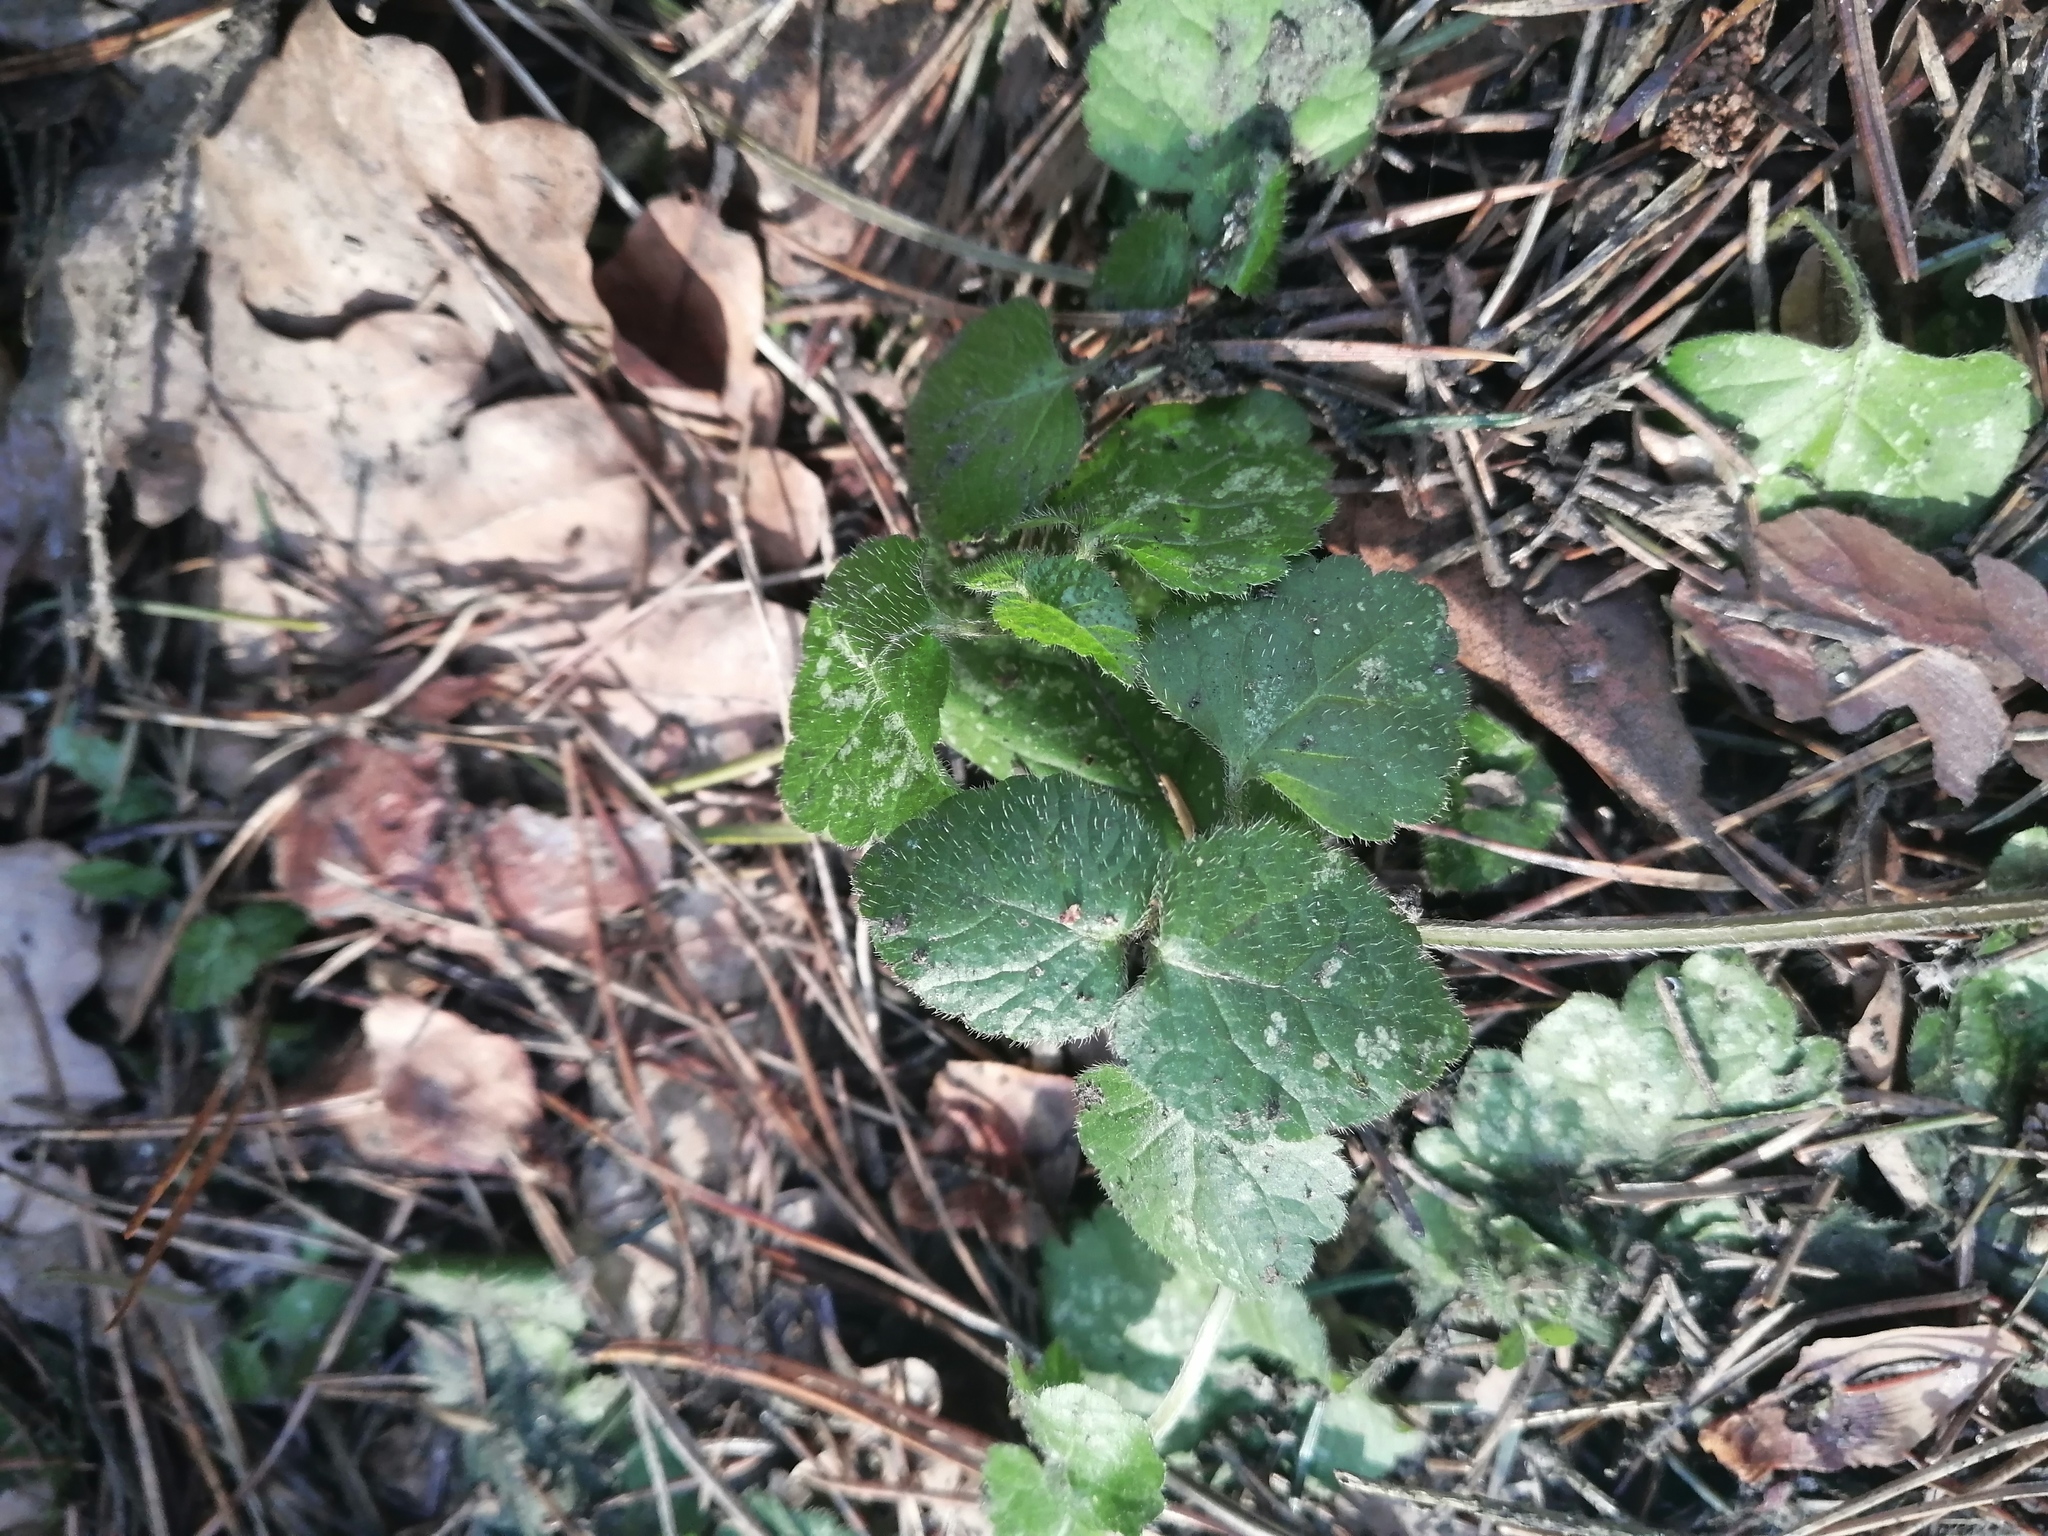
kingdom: Plantae
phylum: Tracheophyta
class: Magnoliopsida
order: Lamiales
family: Lamiaceae
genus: Lamium
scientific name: Lamium galeobdolon
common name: Yellow archangel
